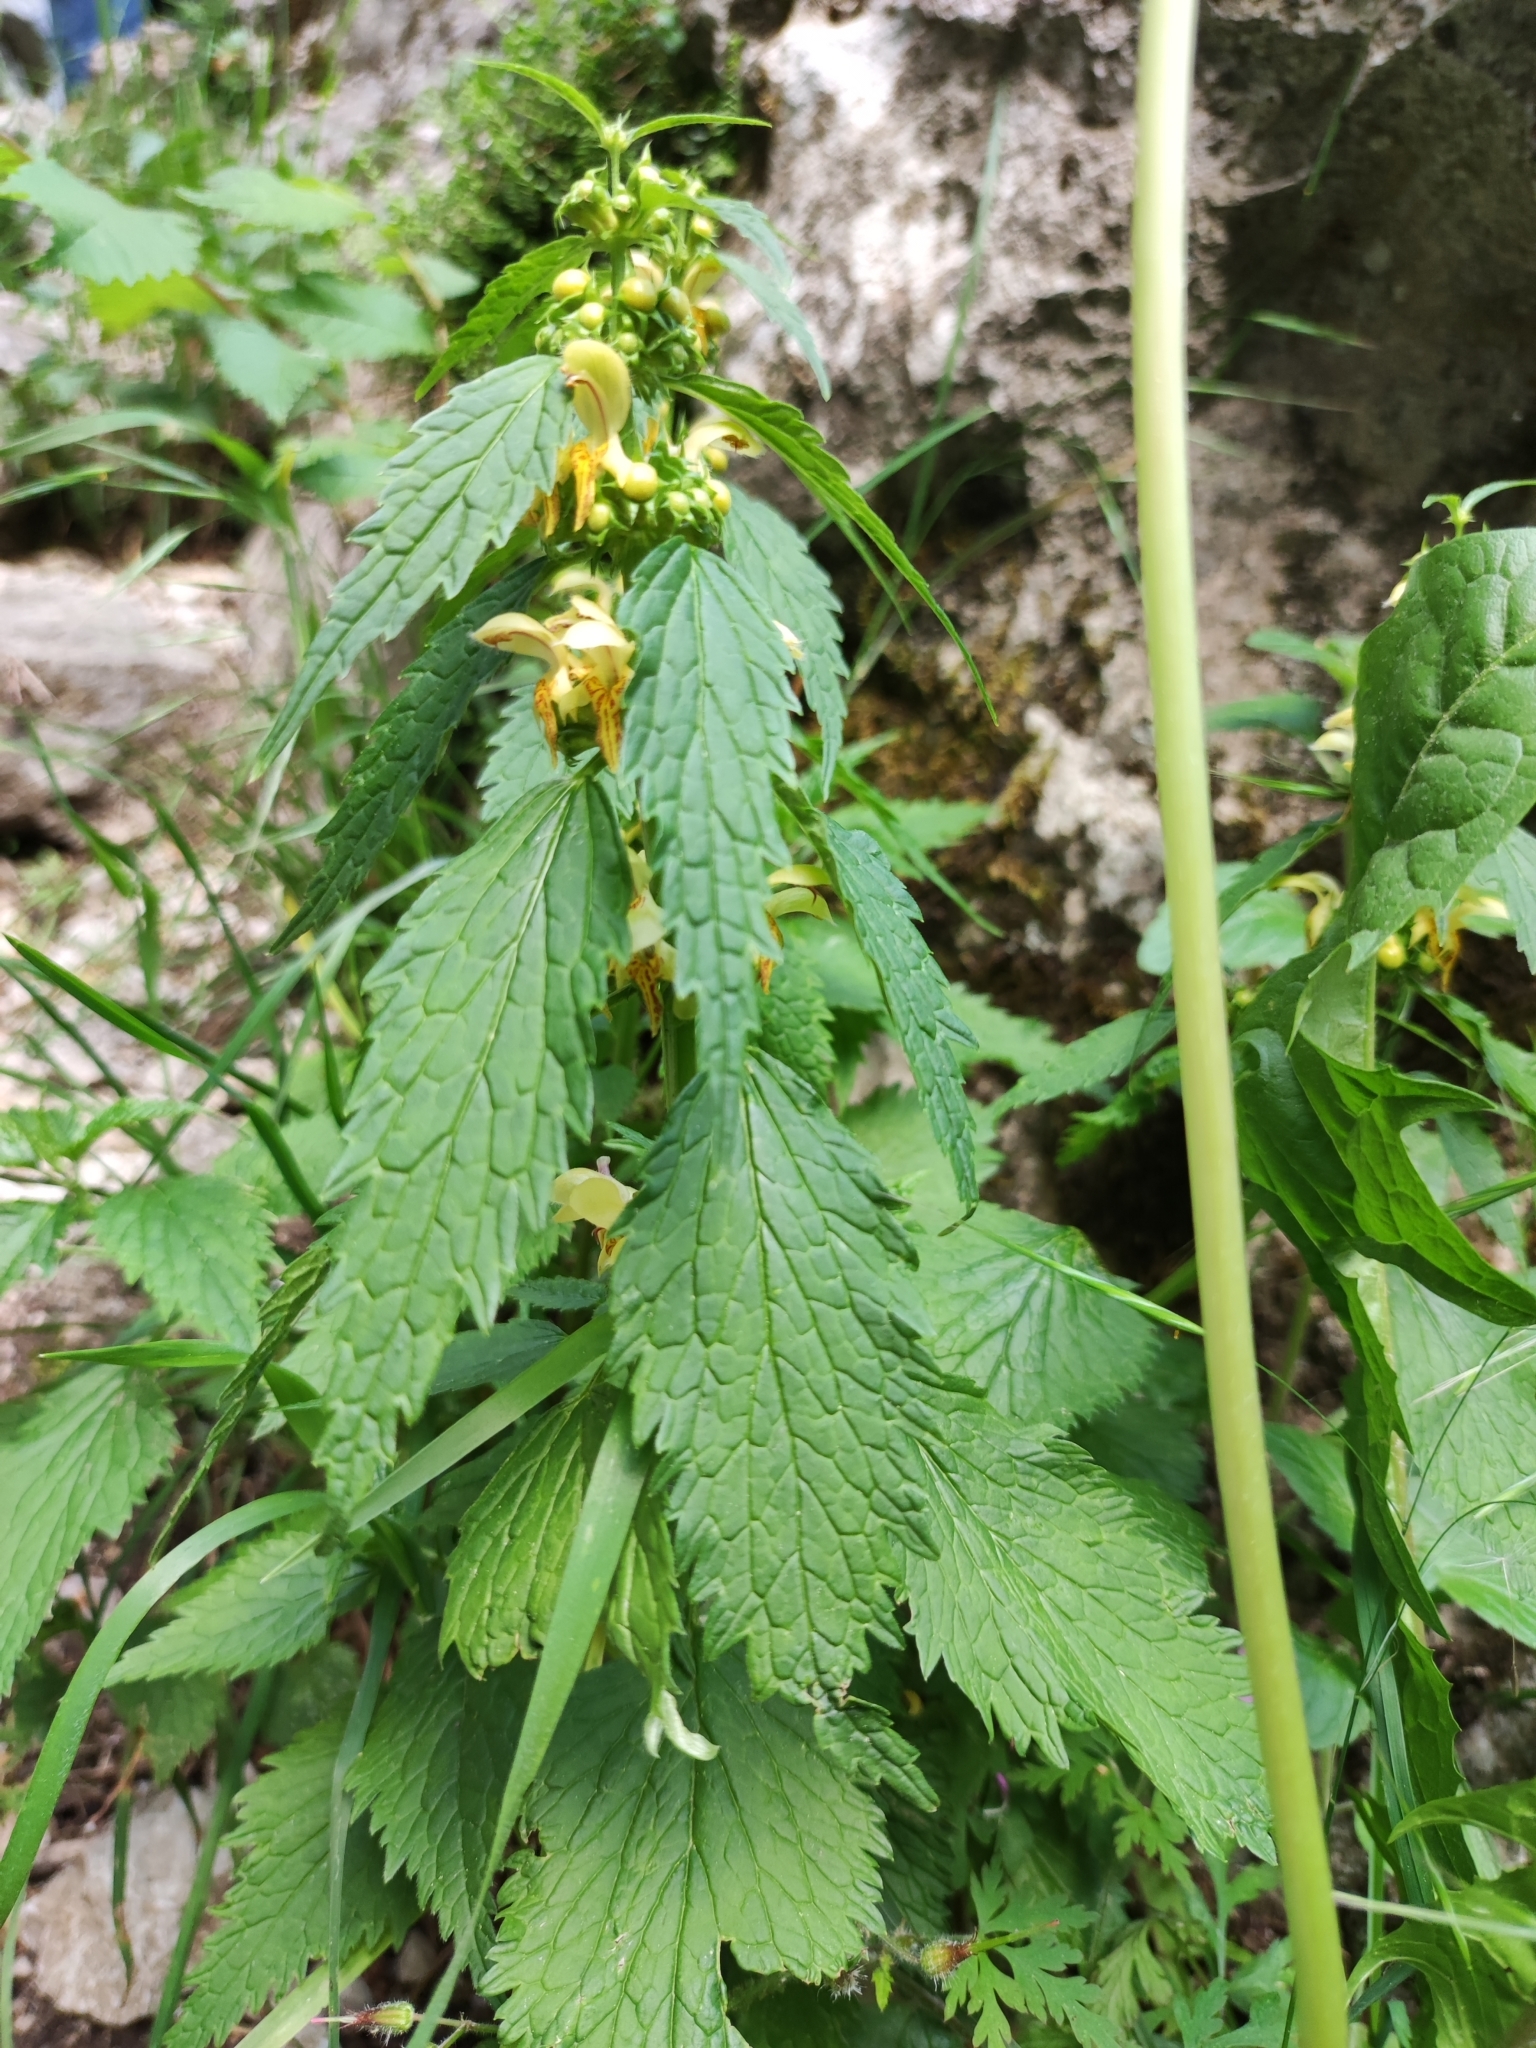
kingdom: Plantae
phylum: Tracheophyta
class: Magnoliopsida
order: Lamiales
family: Lamiaceae
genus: Lamium
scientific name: Lamium galeobdolon
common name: Yellow archangel
